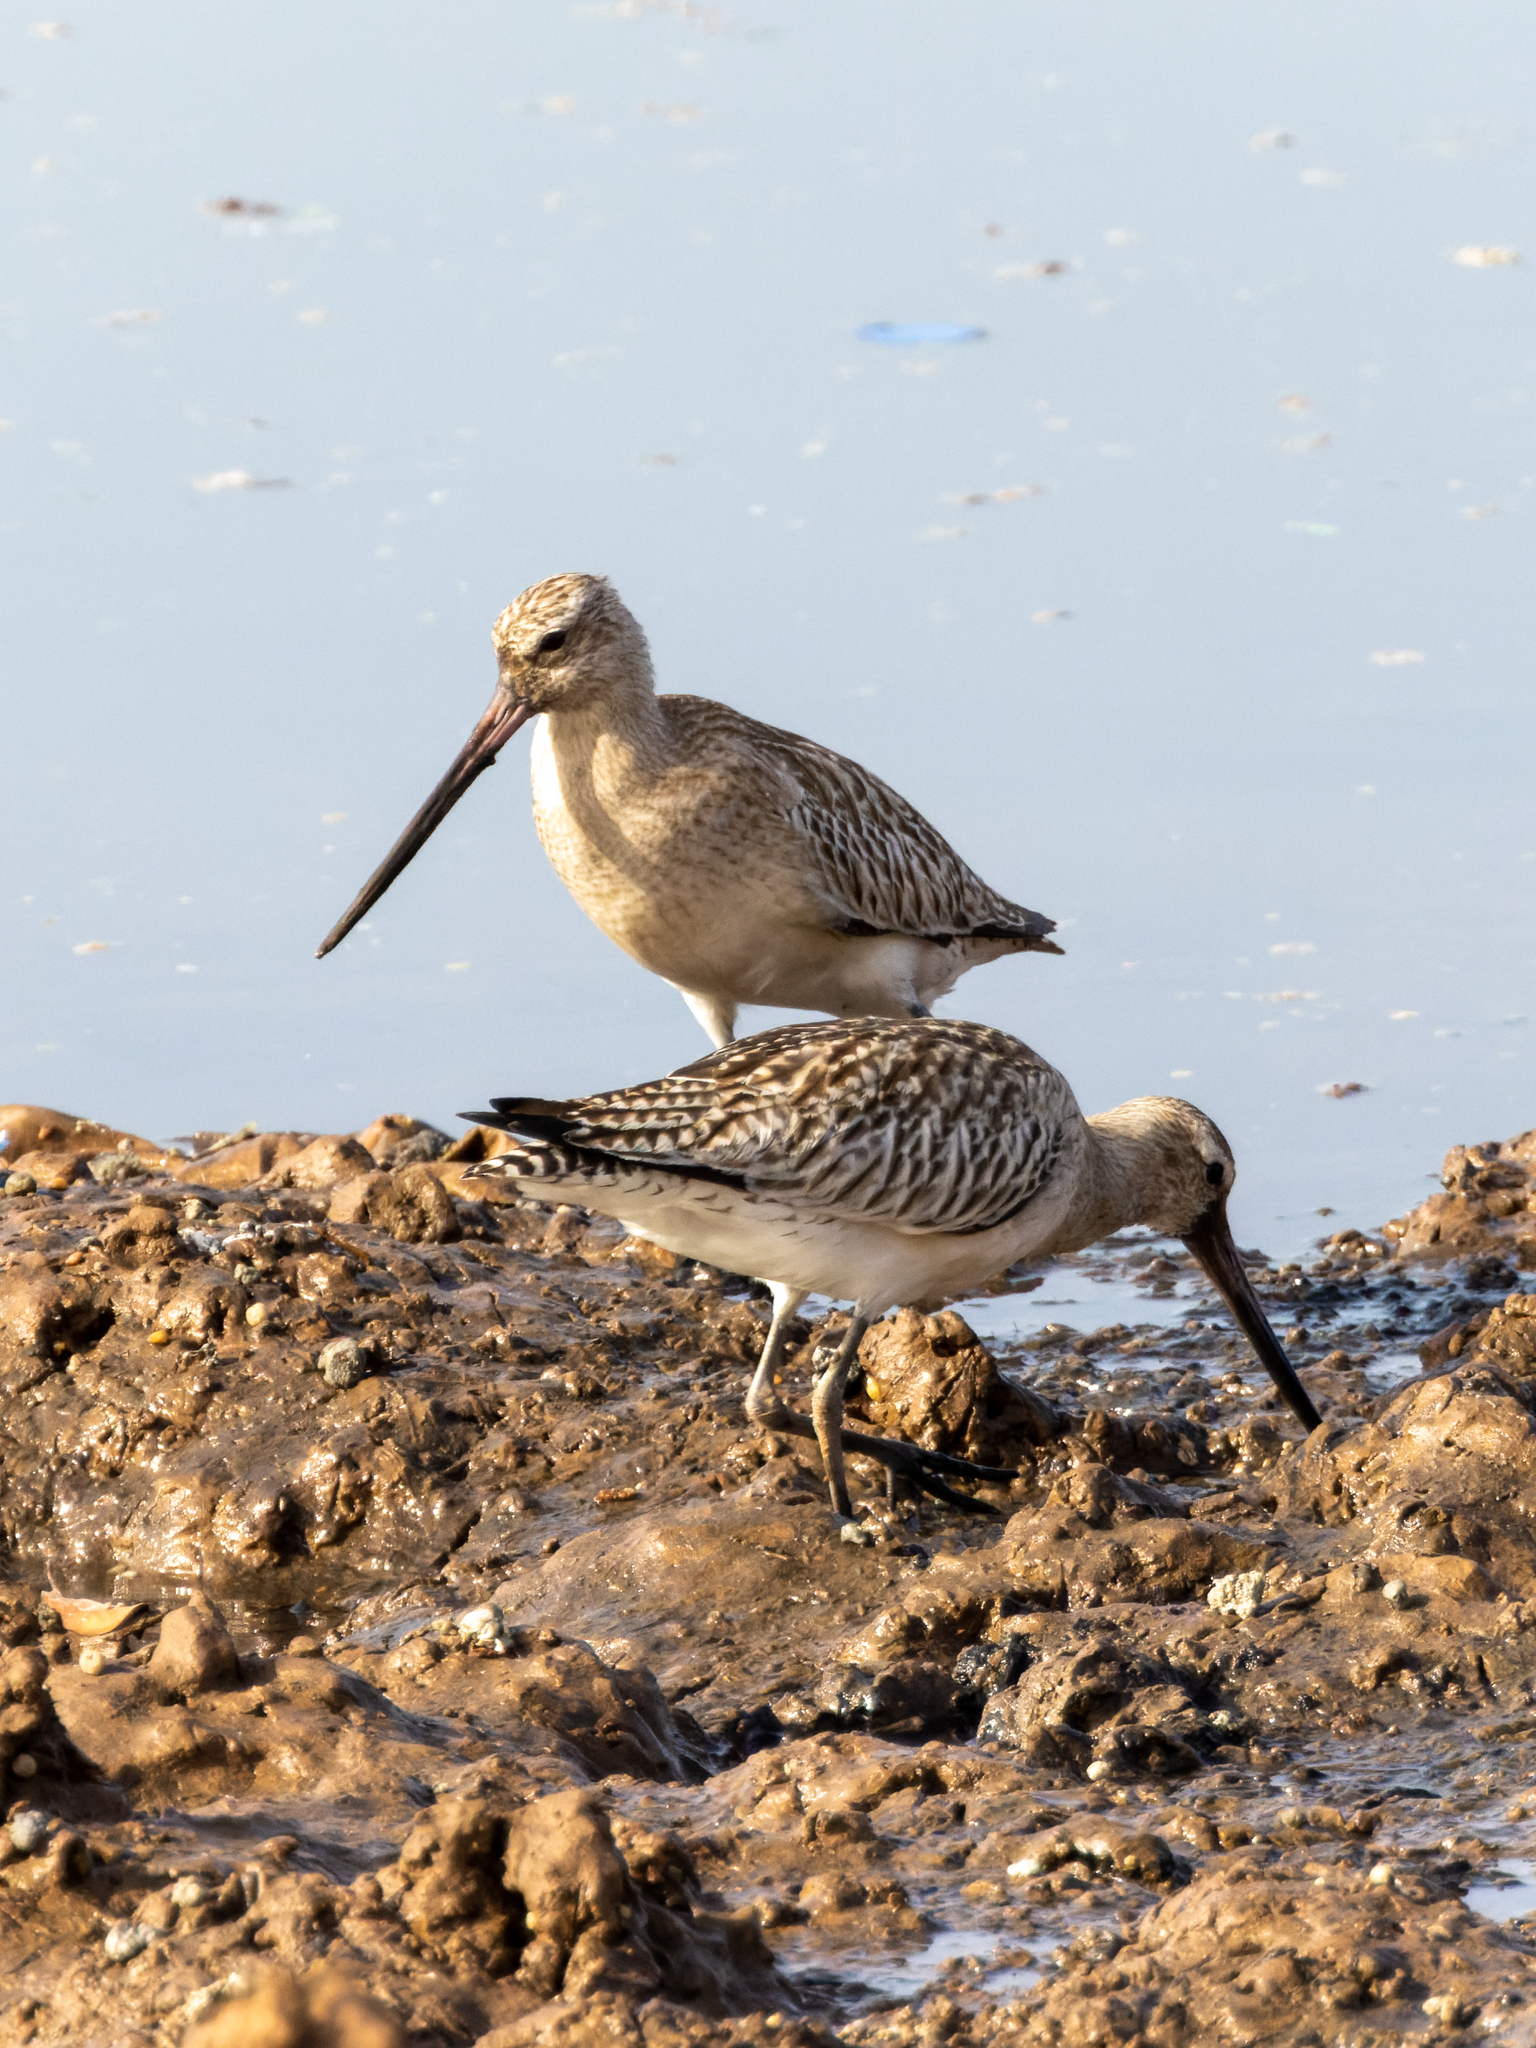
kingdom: Animalia
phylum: Chordata
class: Aves
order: Charadriiformes
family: Scolopacidae
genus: Limosa
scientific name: Limosa lapponica
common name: Bar-tailed godwit
